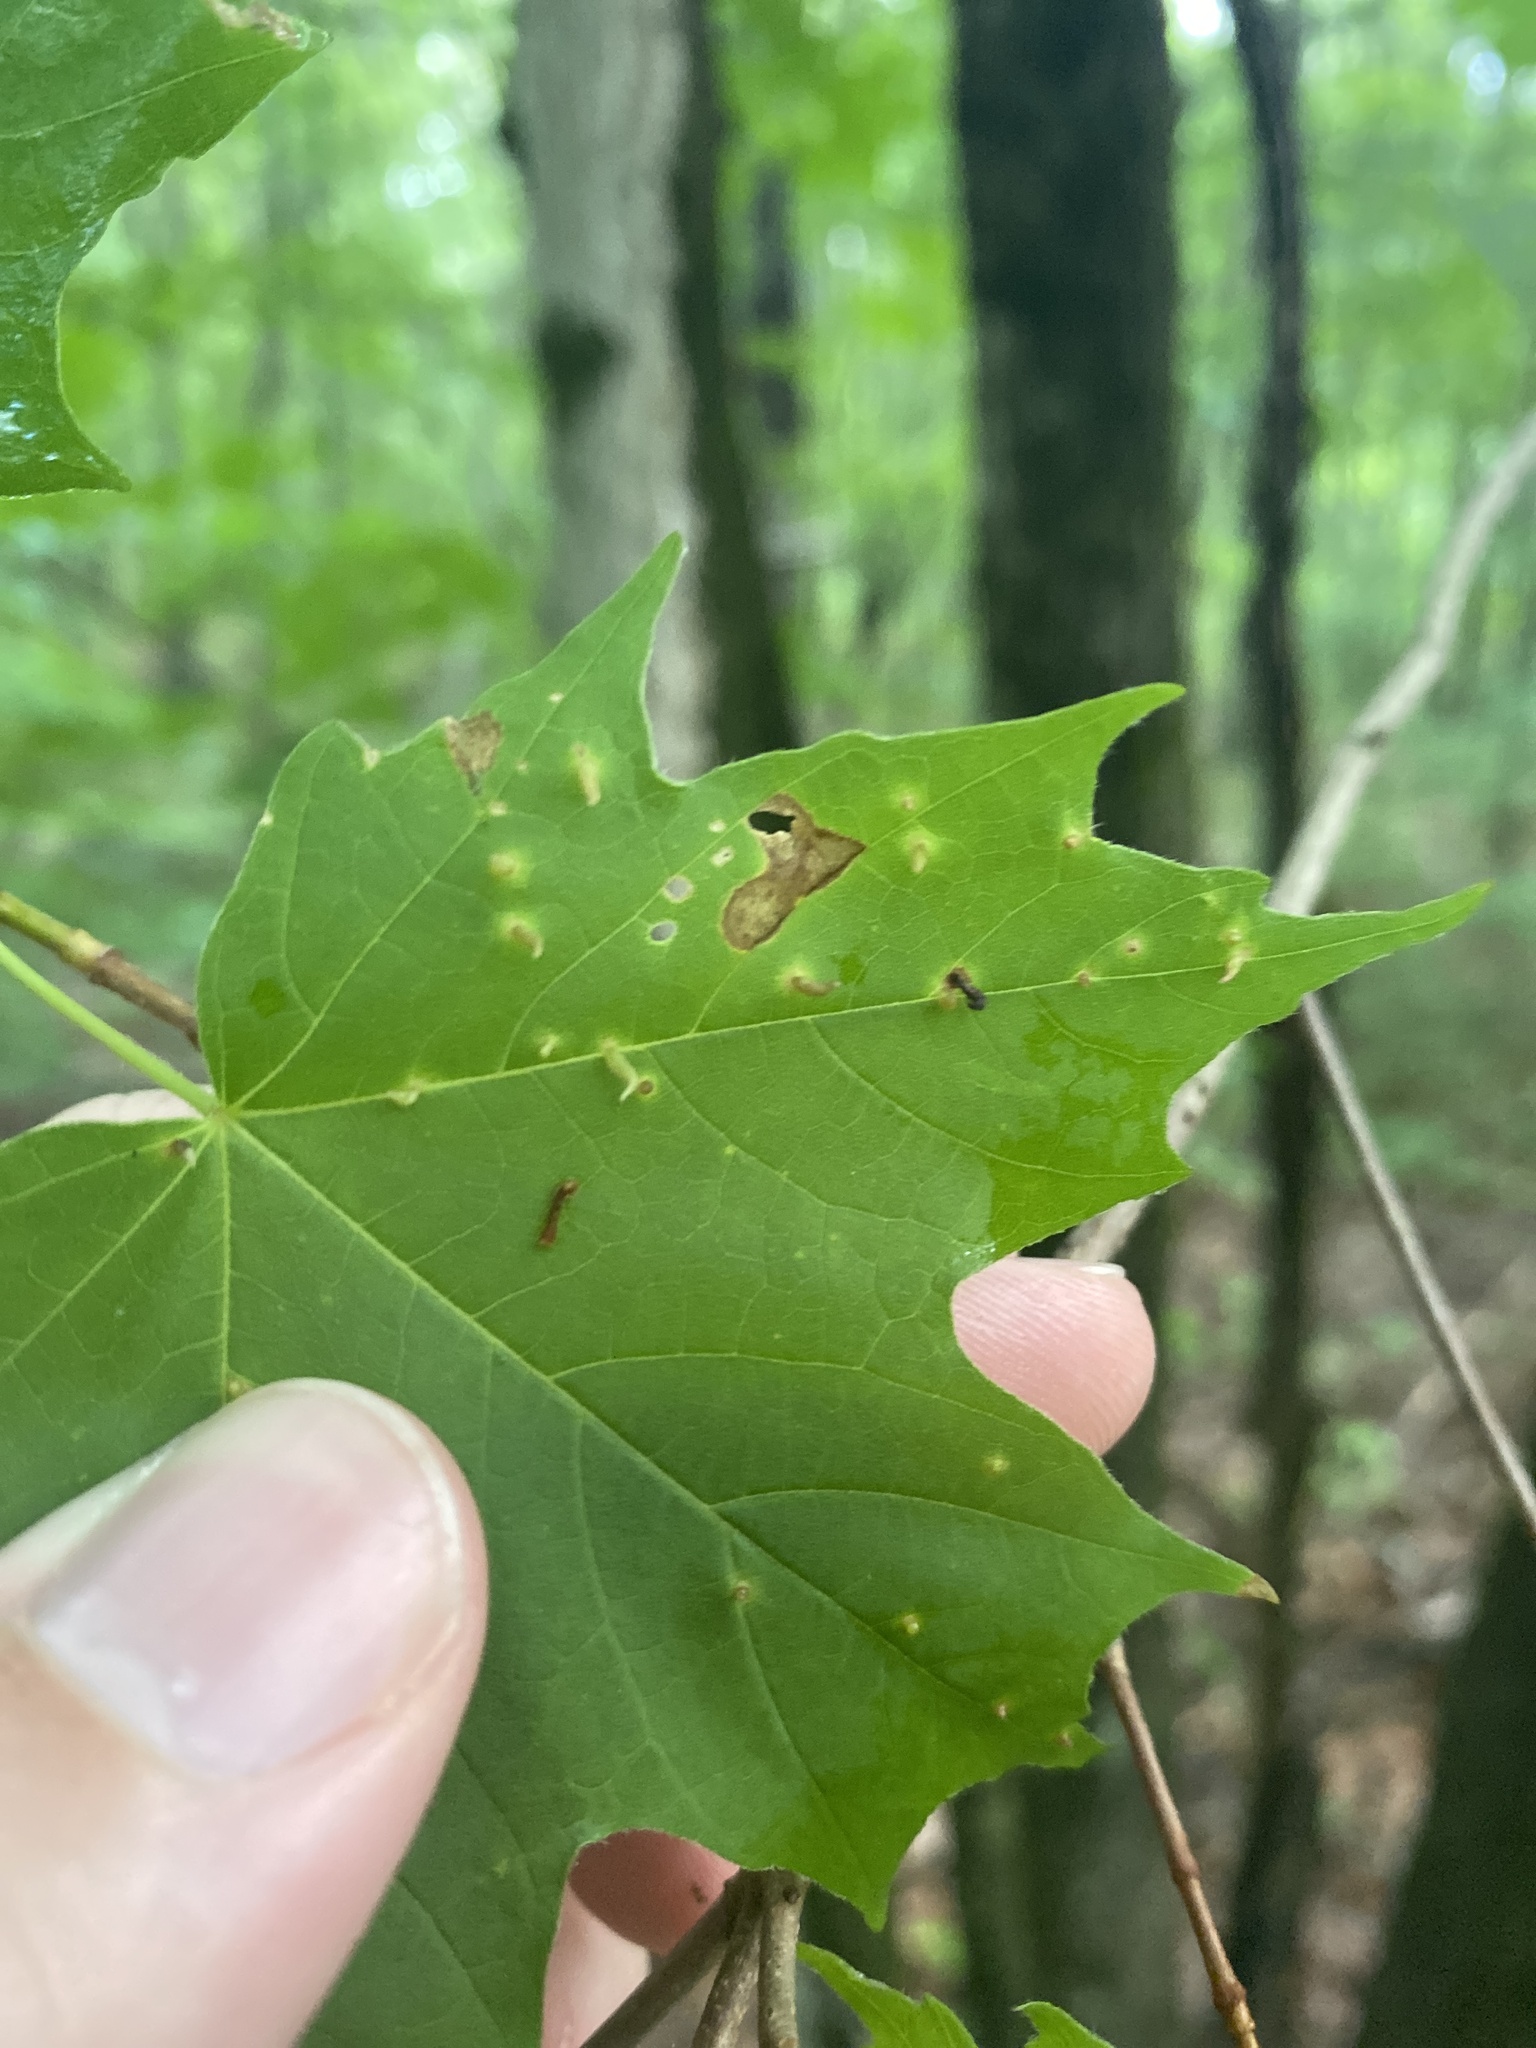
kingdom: Animalia
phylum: Arthropoda
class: Arachnida
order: Trombidiformes
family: Eriophyidae
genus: Vasates
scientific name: Vasates aceriscrumena
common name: Maple spindle gall mite
